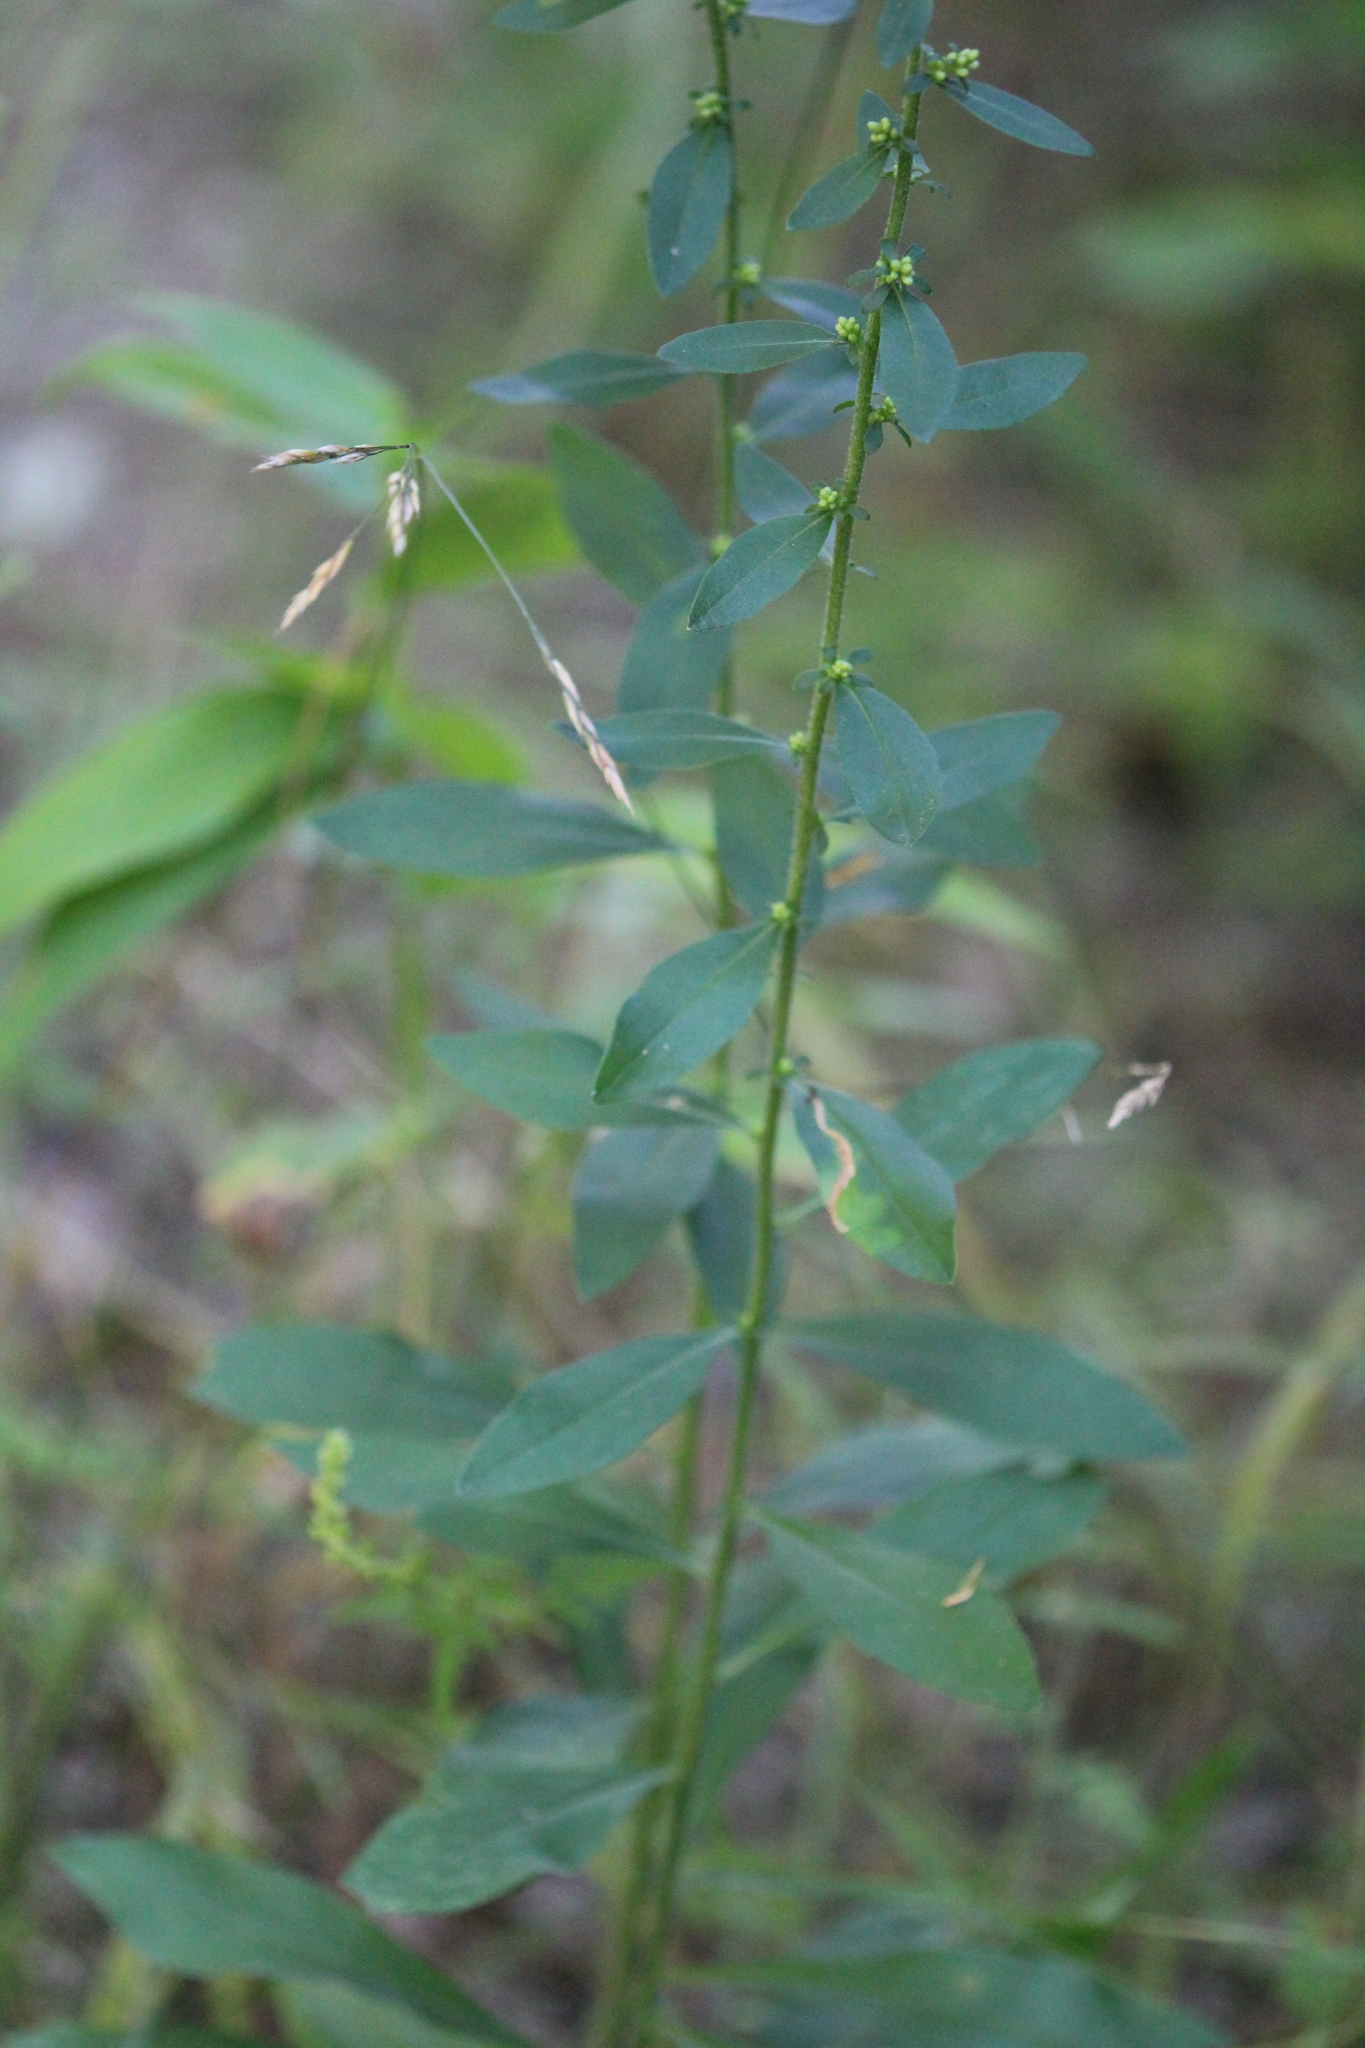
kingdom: Plantae
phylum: Tracheophyta
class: Magnoliopsida
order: Asterales
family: Asteraceae
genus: Solidago
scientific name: Solidago bicolor
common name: Silverrod
